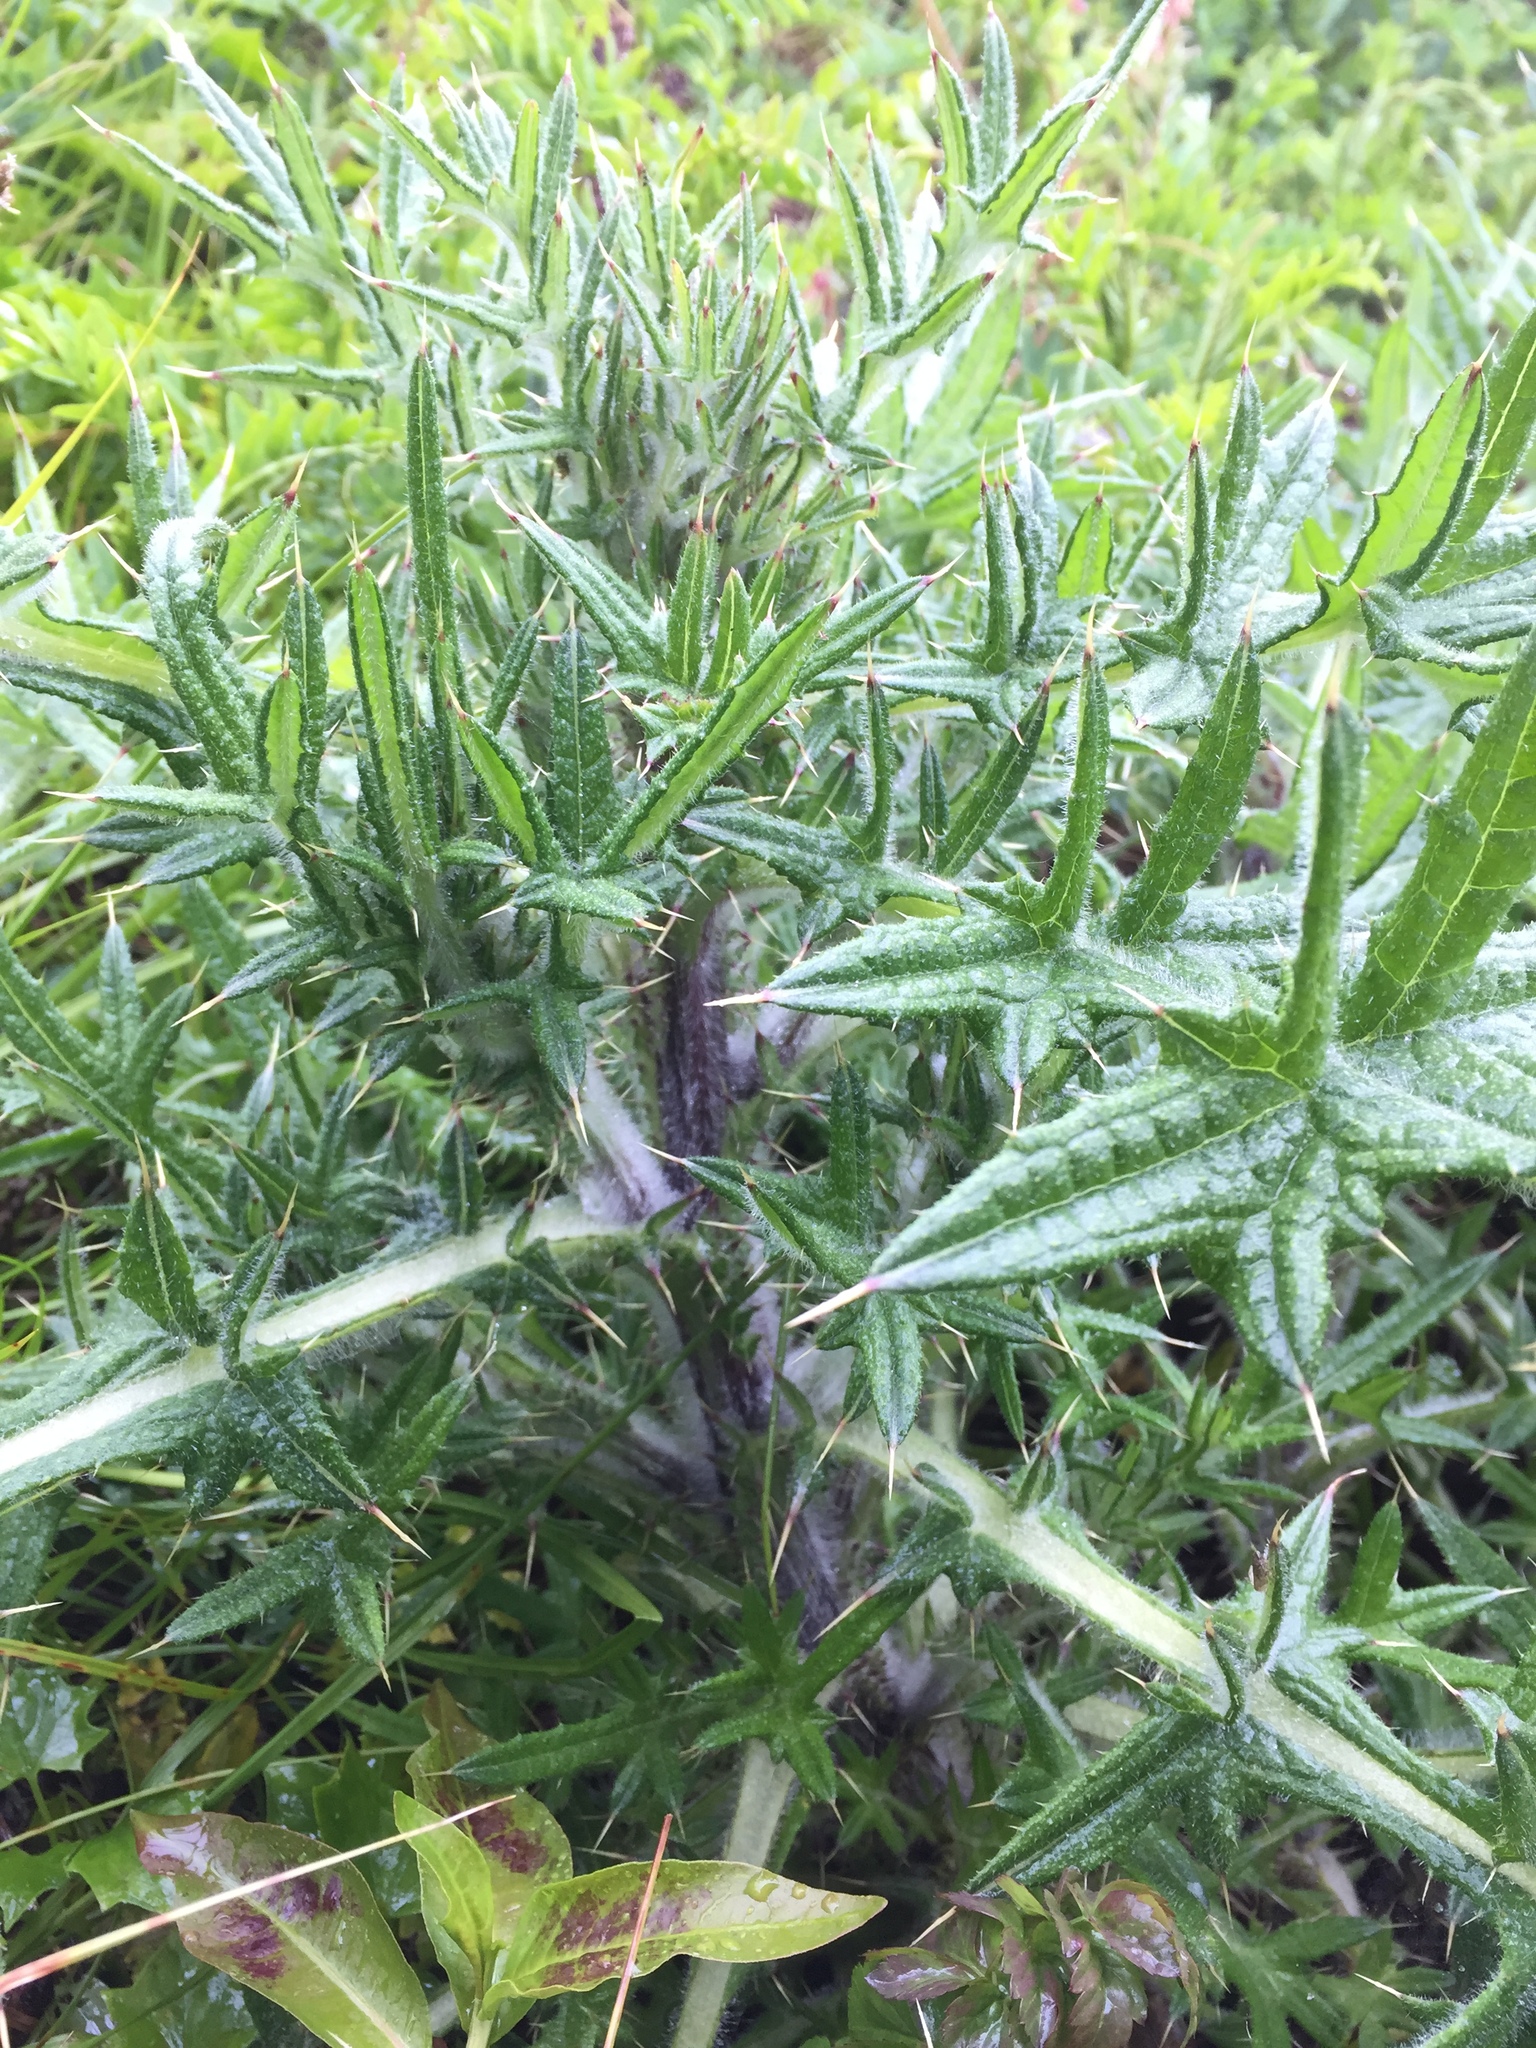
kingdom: Plantae
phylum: Tracheophyta
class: Magnoliopsida
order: Asterales
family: Asteraceae
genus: Cirsium
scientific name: Cirsium vulgare
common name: Bull thistle
